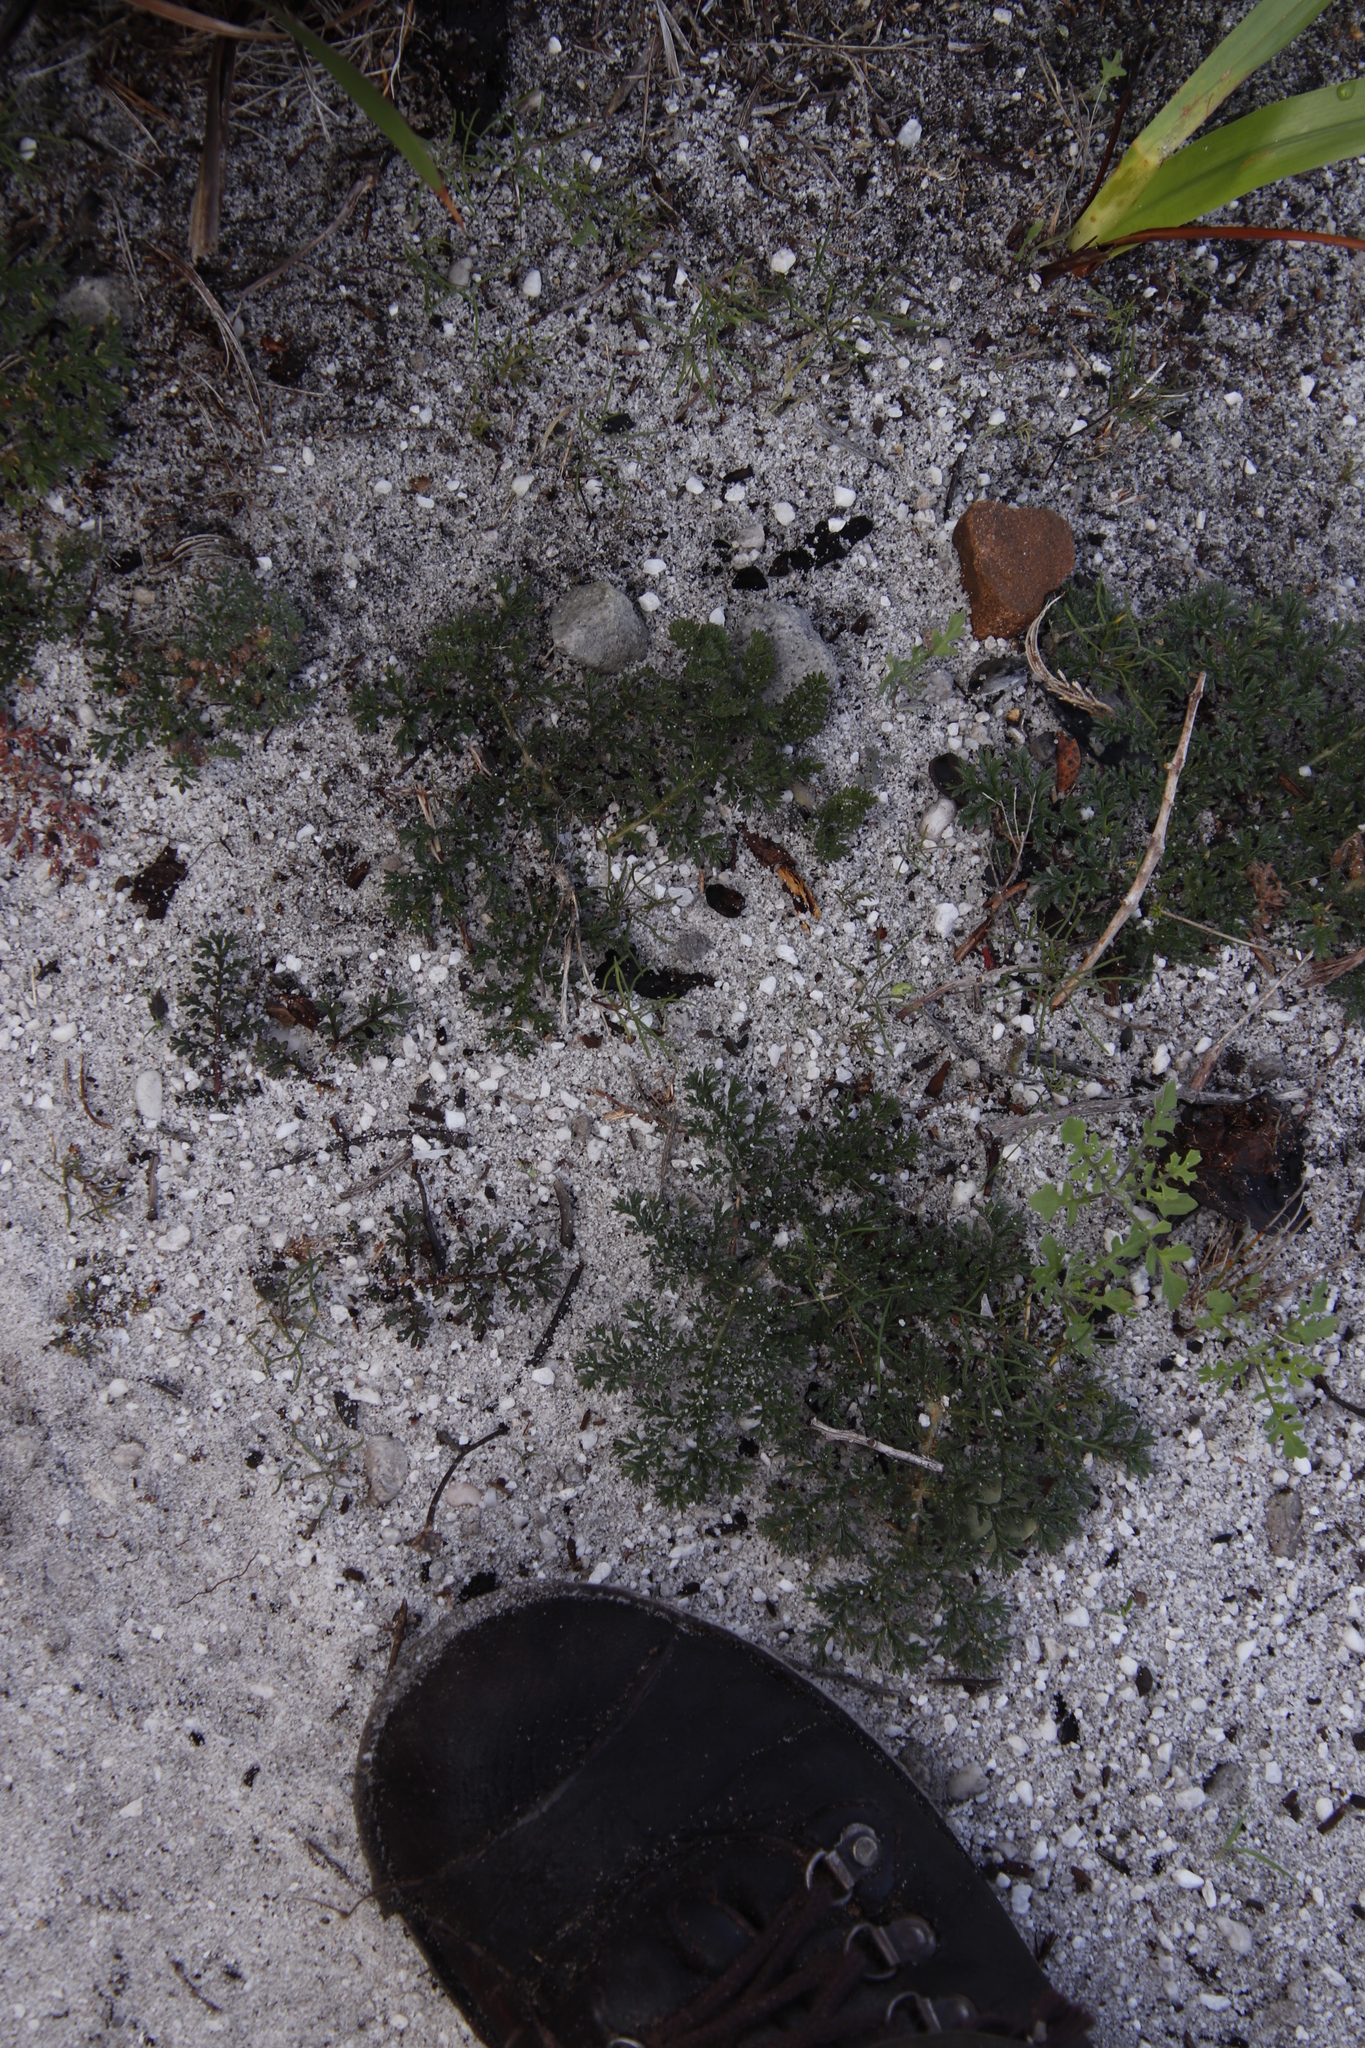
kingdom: Plantae
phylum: Tracheophyta
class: Magnoliopsida
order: Geraniales
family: Geraniaceae
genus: Pelargonium
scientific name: Pelargonium triste
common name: Night-scent pelargonium
